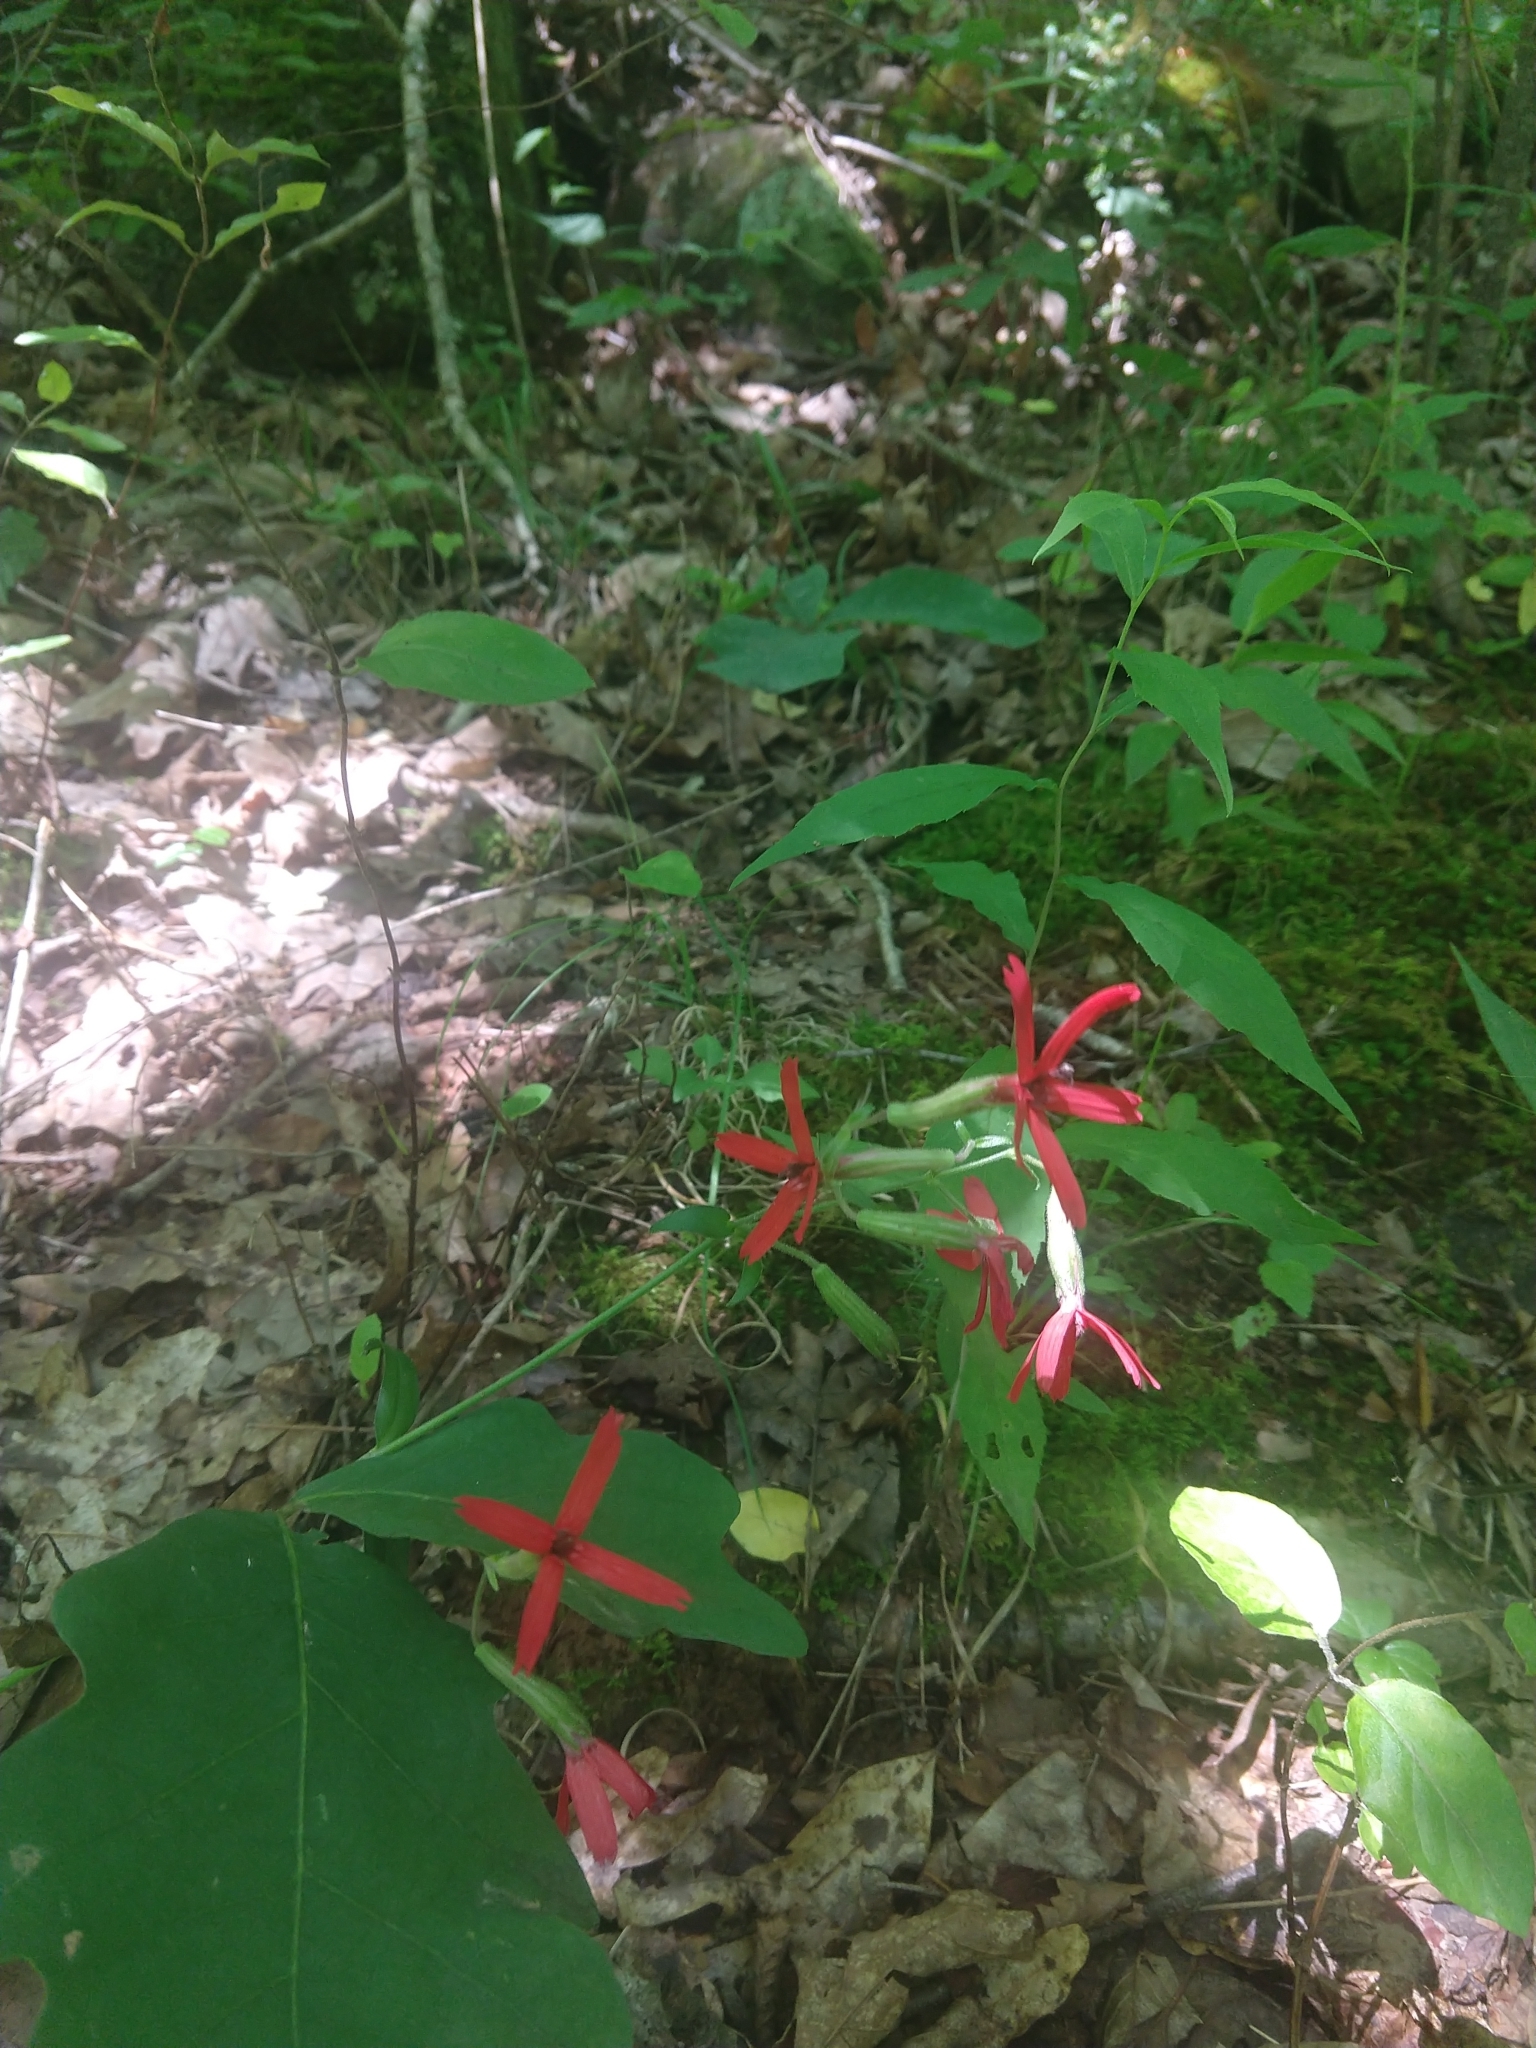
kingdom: Plantae
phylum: Tracheophyta
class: Magnoliopsida
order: Caryophyllales
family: Caryophyllaceae
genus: Silene
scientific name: Silene virginica
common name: Fire-pink
